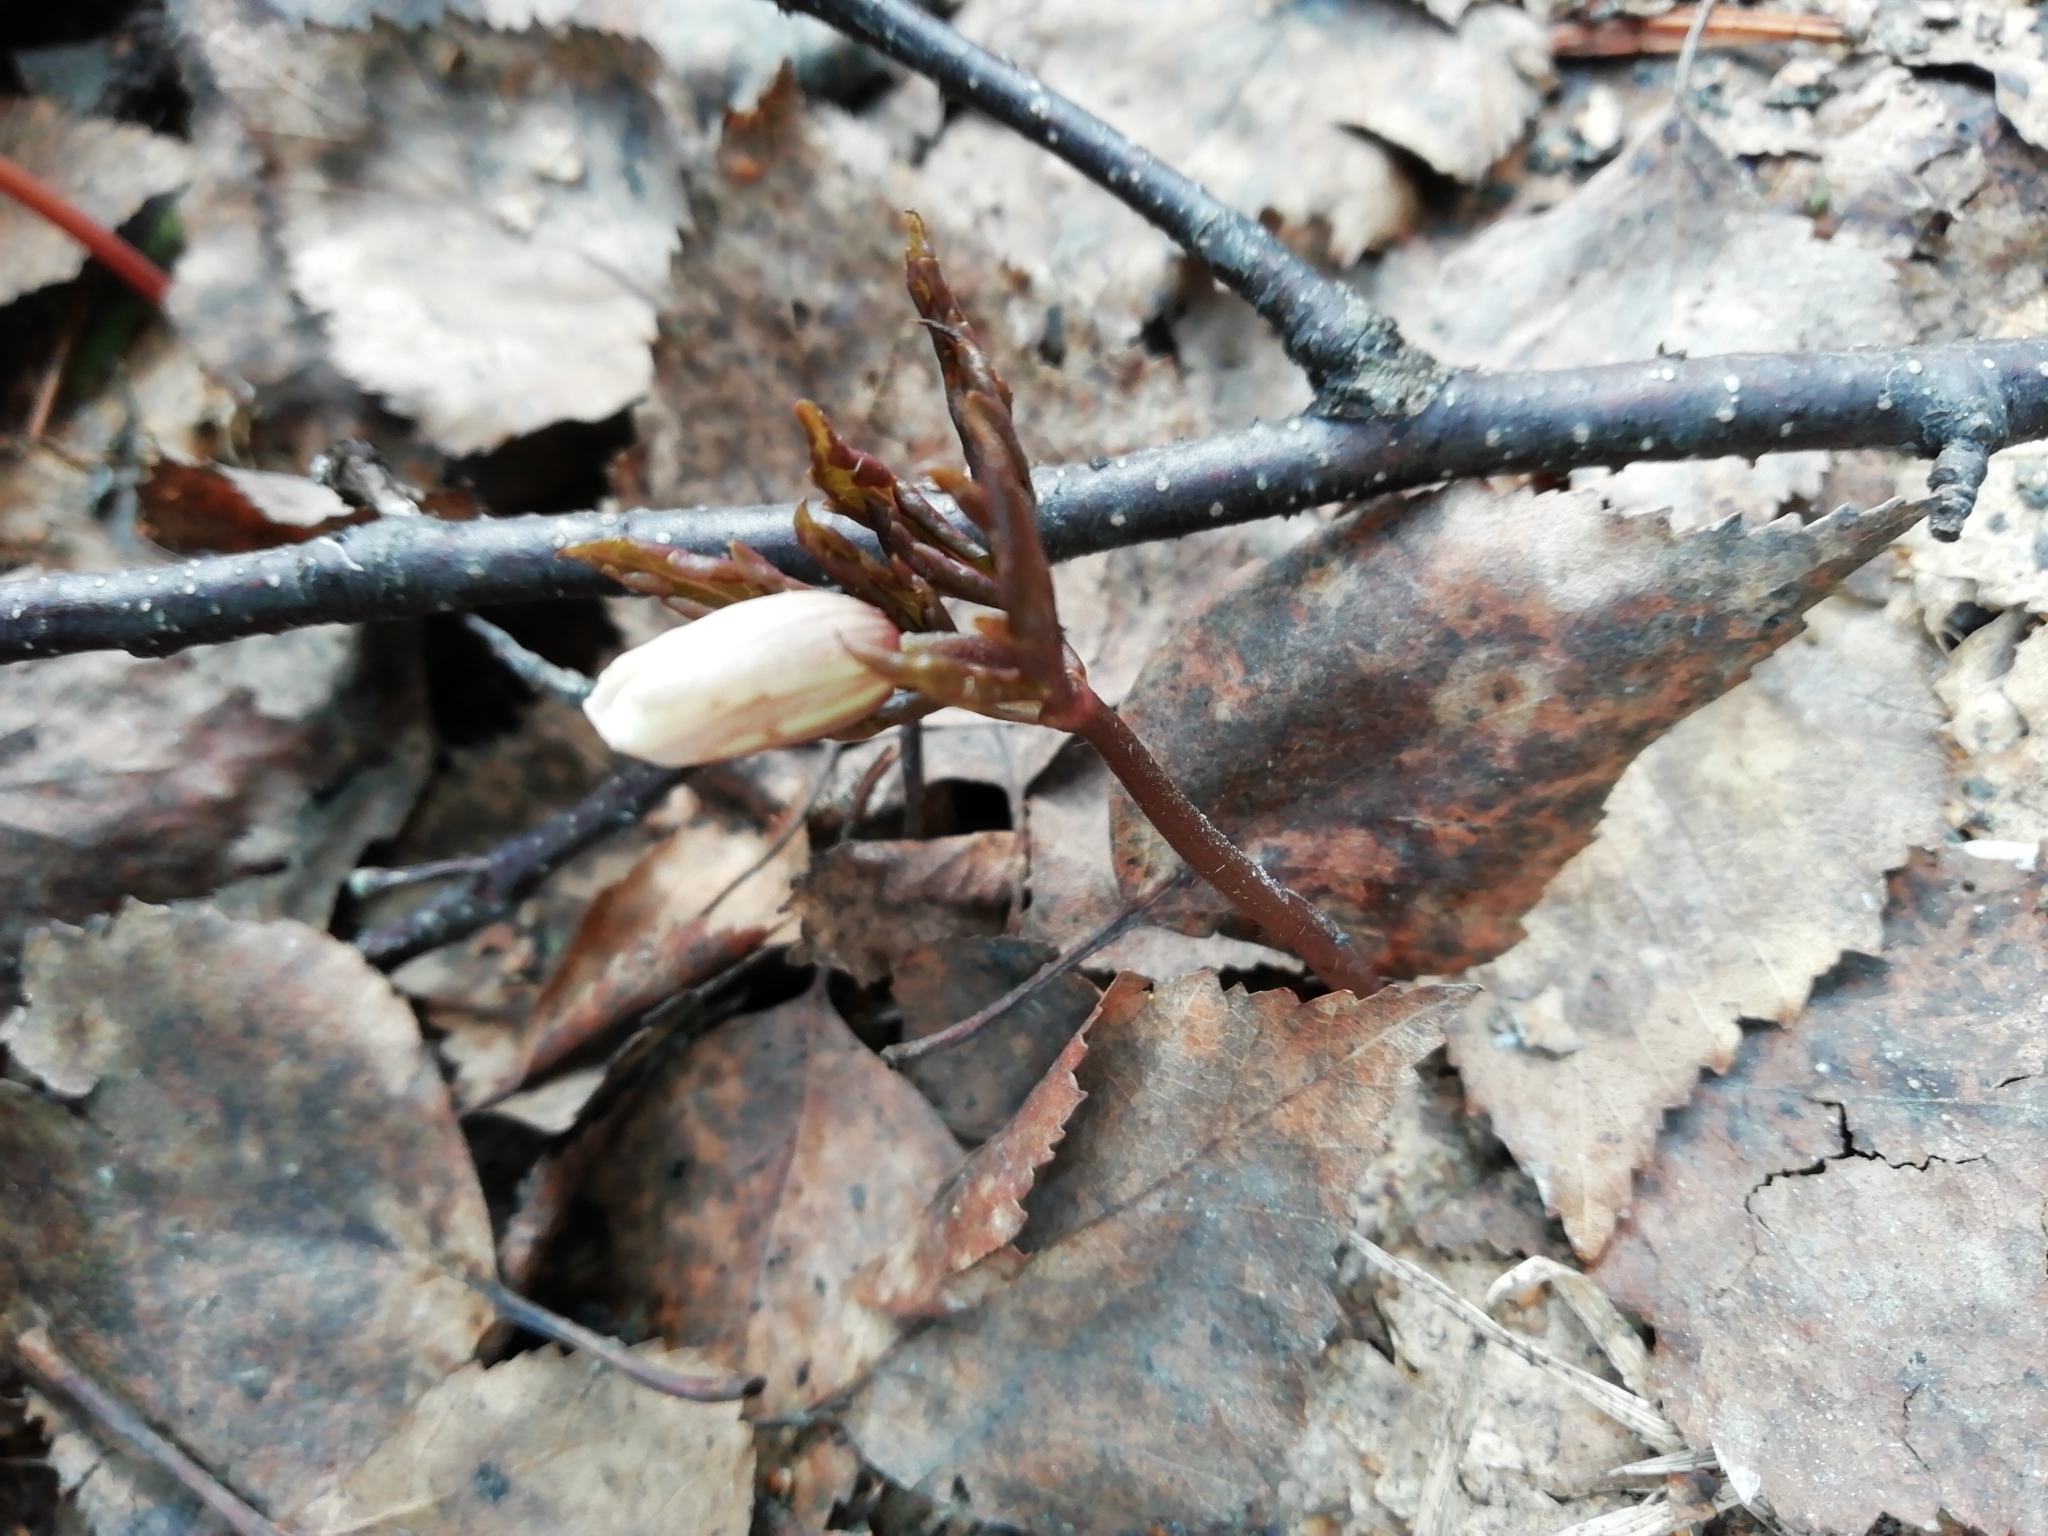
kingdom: Plantae
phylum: Tracheophyta
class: Magnoliopsida
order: Ranunculales
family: Ranunculaceae
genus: Anemone
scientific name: Anemone altaica
